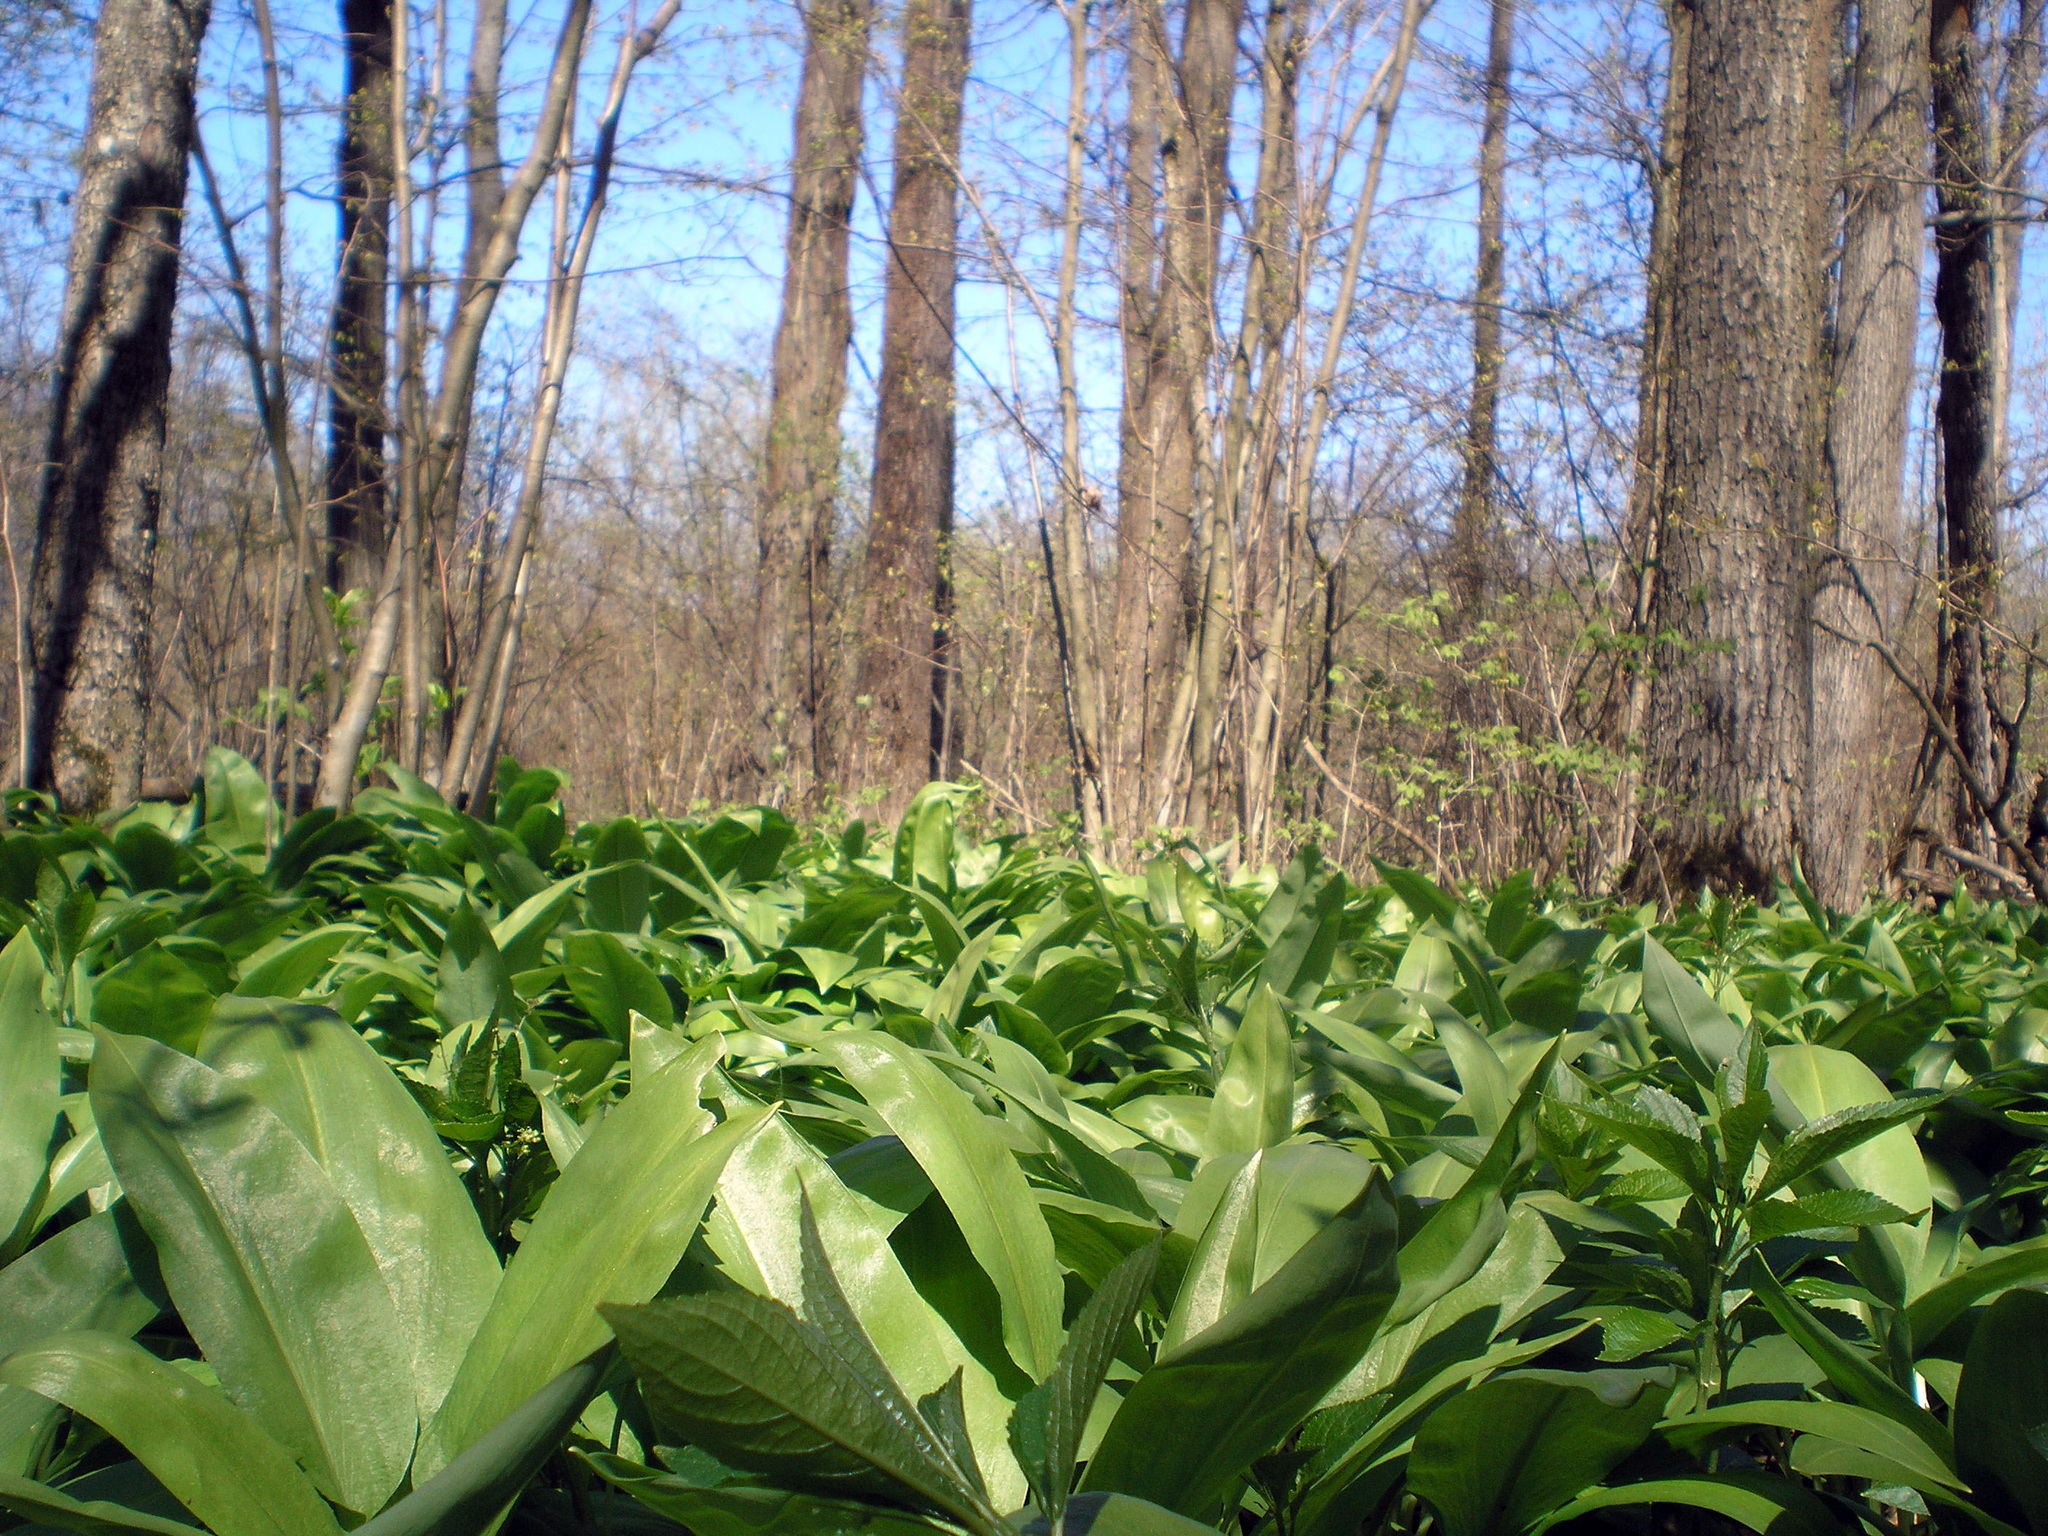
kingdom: Plantae
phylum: Tracheophyta
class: Liliopsida
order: Asparagales
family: Amaryllidaceae
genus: Allium
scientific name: Allium ursinum
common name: Ramsons
